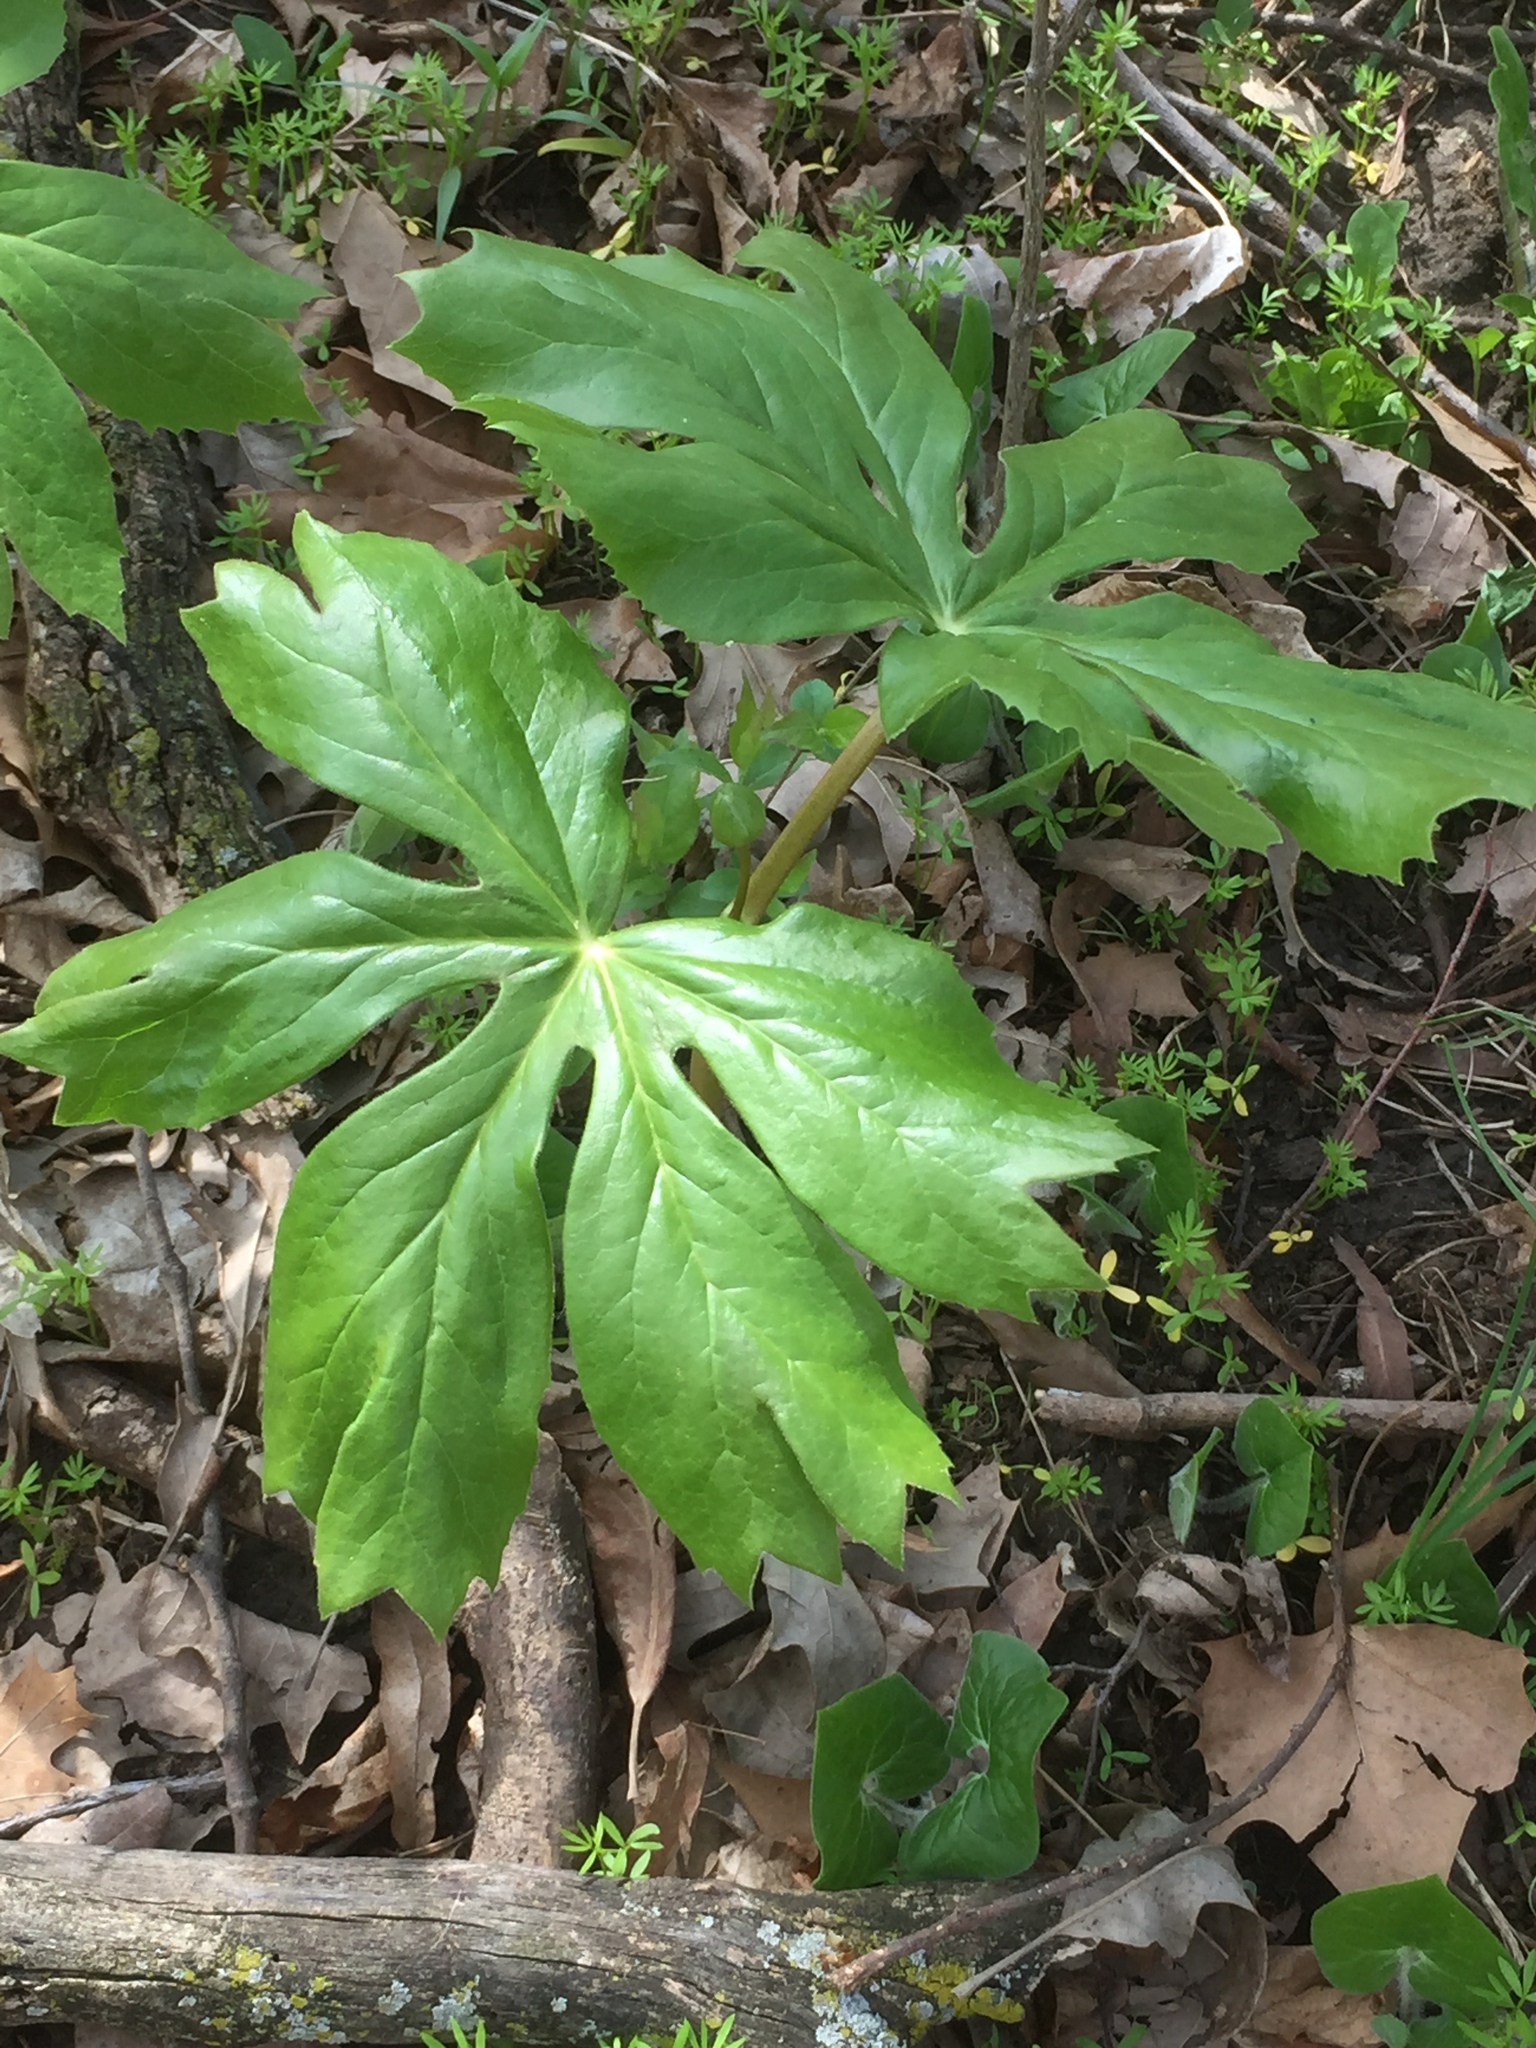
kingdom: Plantae
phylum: Tracheophyta
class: Magnoliopsida
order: Ranunculales
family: Berberidaceae
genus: Podophyllum
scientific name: Podophyllum peltatum
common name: Wild mandrake
